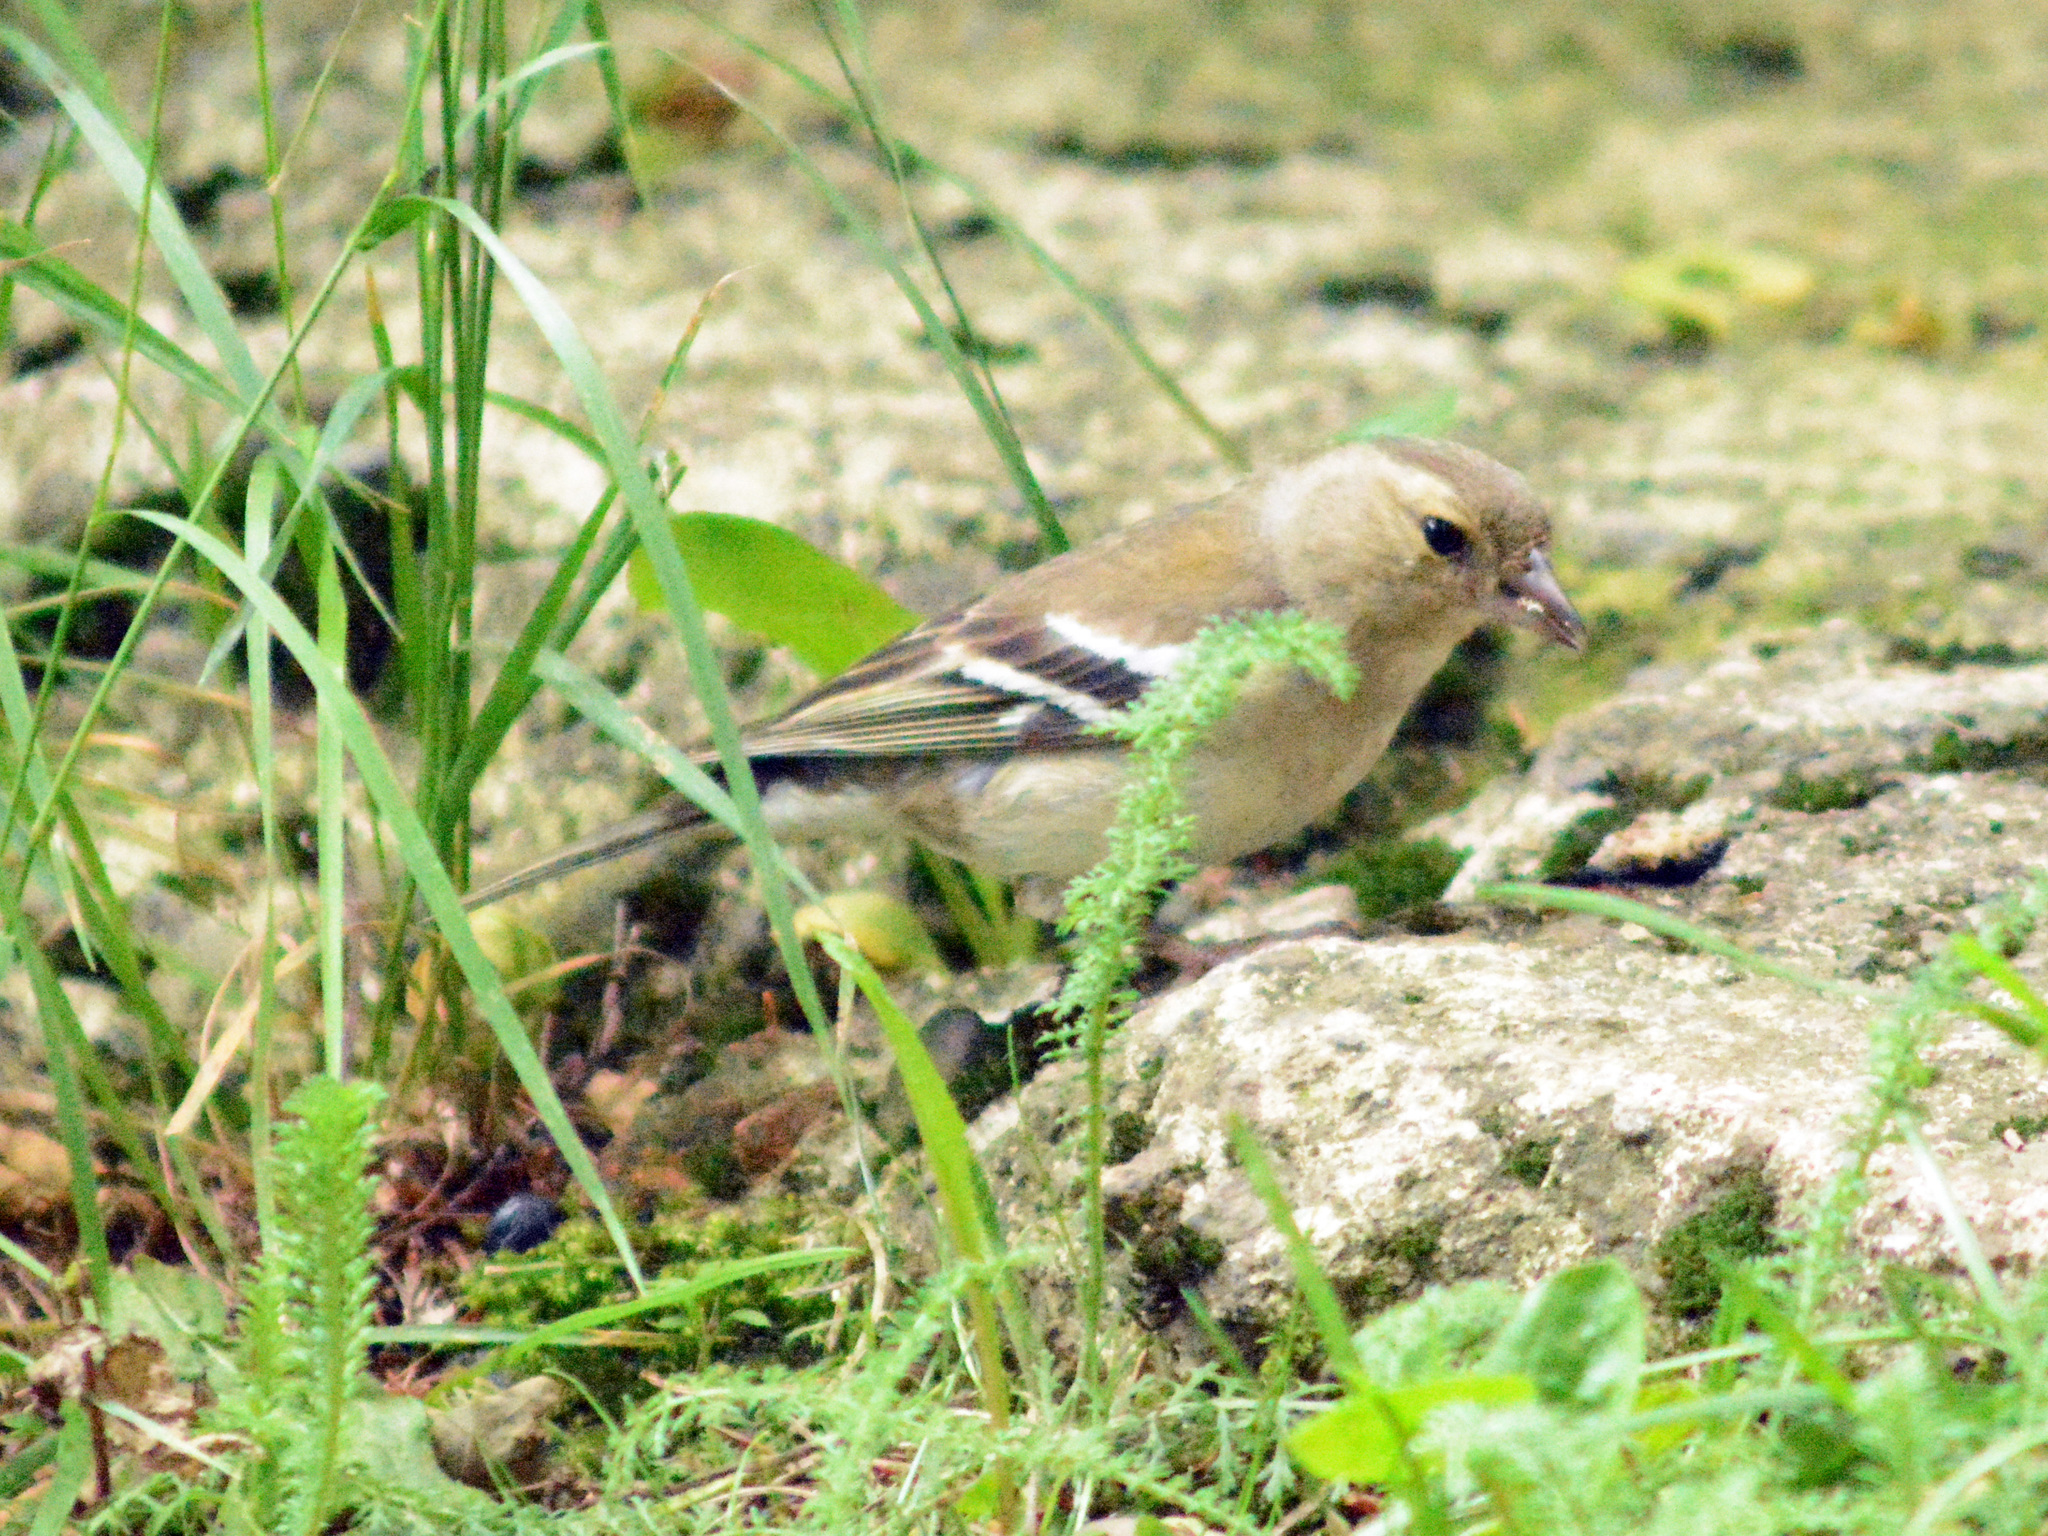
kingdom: Animalia
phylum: Chordata
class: Aves
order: Passeriformes
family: Fringillidae
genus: Fringilla
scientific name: Fringilla coelebs
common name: Common chaffinch
